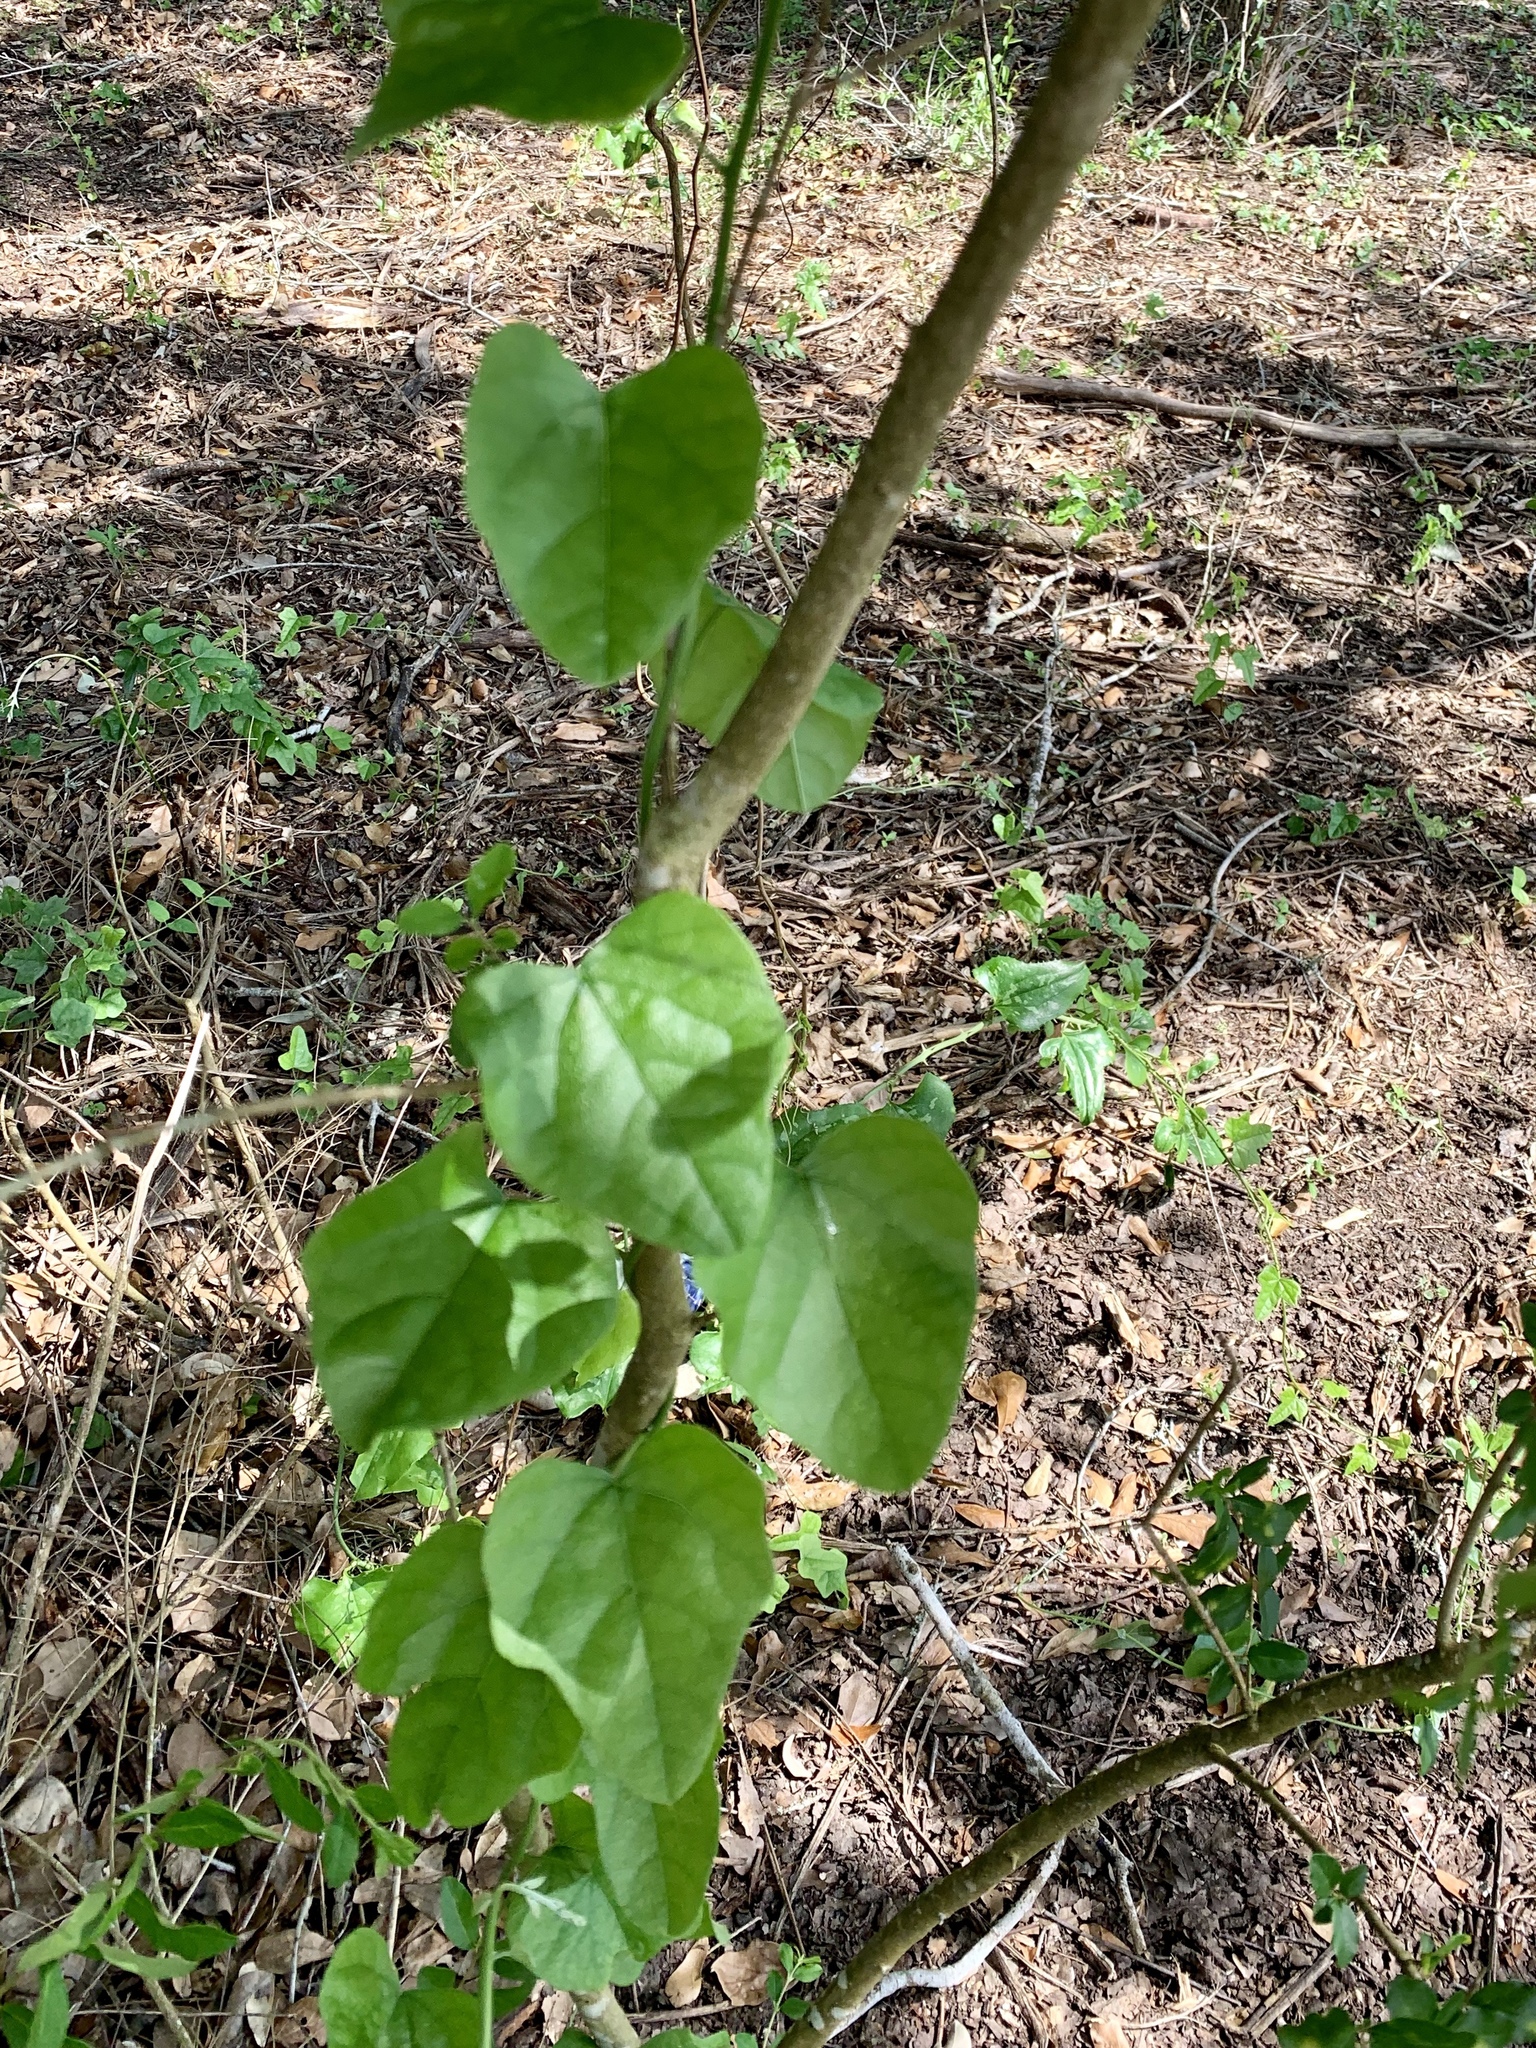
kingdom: Plantae
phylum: Tracheophyta
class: Magnoliopsida
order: Ranunculales
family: Menispermaceae
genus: Cocculus
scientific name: Cocculus carolinus
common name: Carolina moonseed
